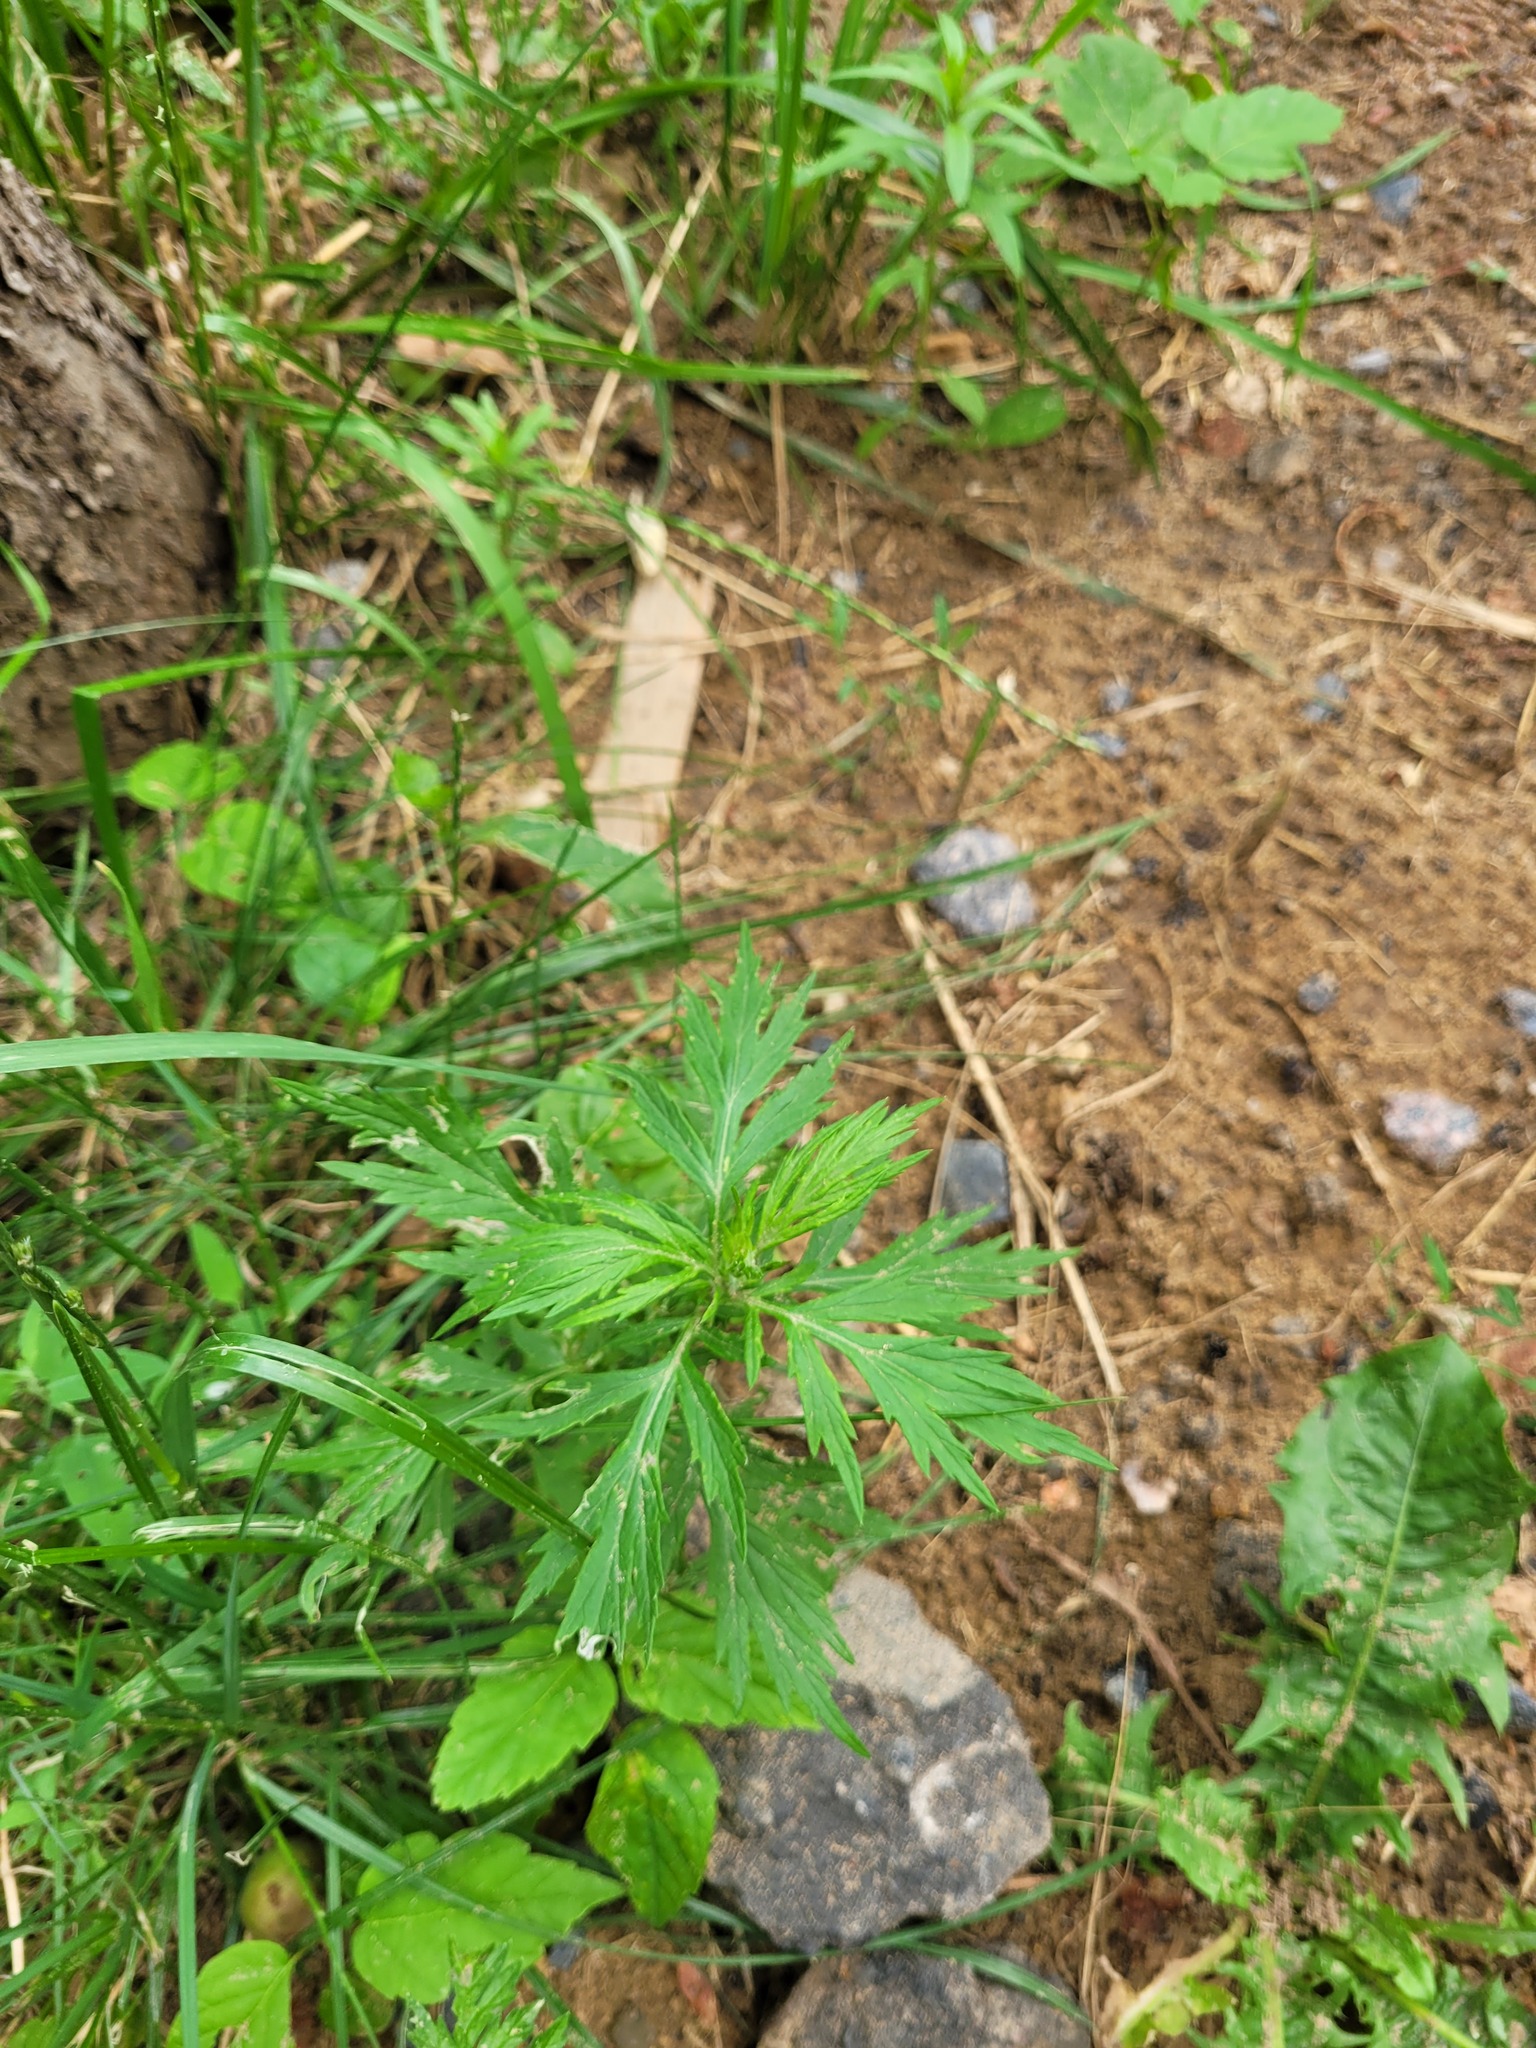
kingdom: Plantae
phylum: Tracheophyta
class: Magnoliopsida
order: Asterales
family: Asteraceae
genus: Artemisia
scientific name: Artemisia vulgaris
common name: Mugwort
